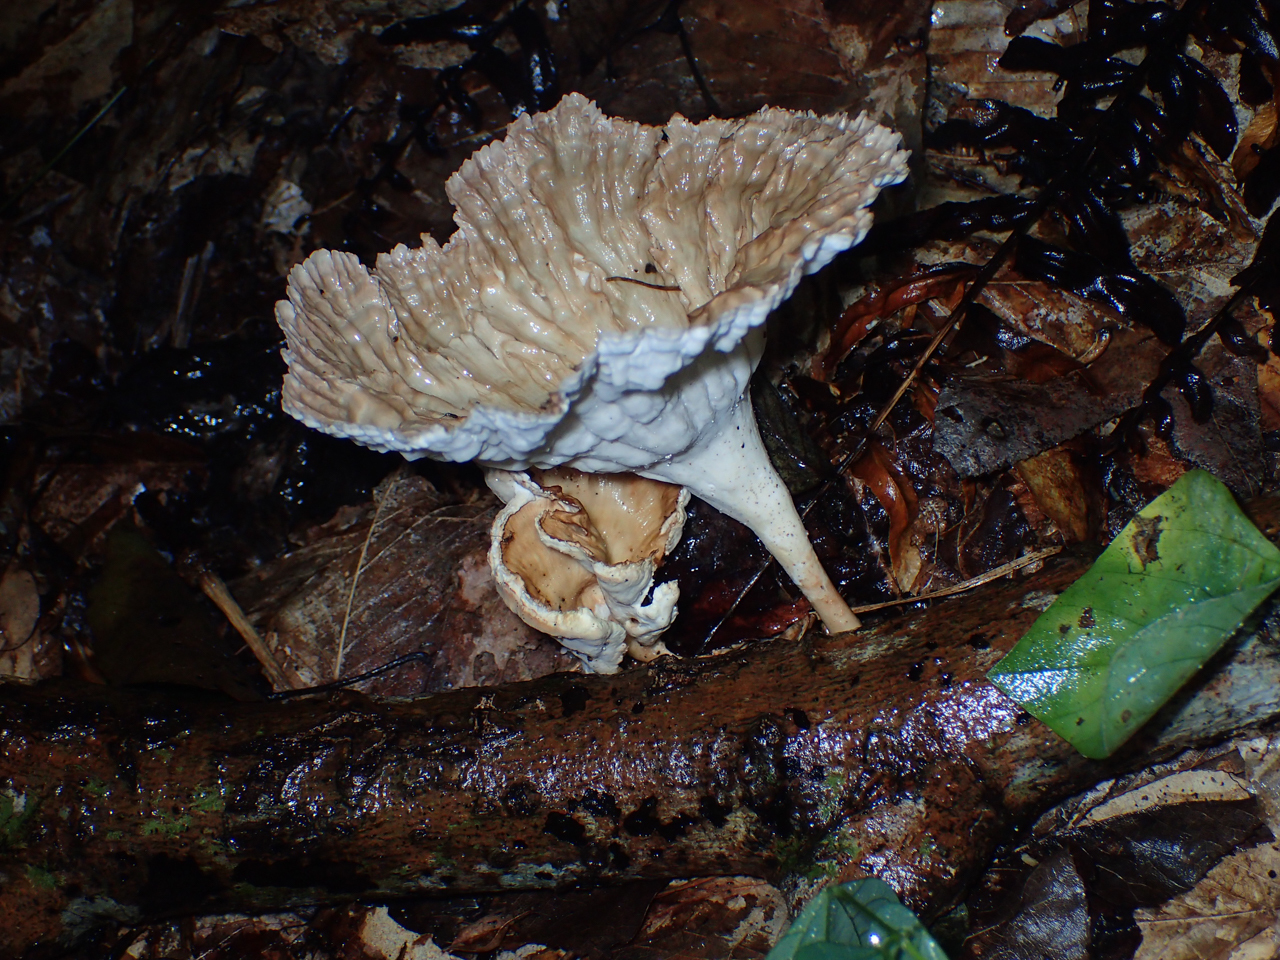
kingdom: Fungi
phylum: Basidiomycota
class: Agaricomycetes
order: Polyporales
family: Panaceae
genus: Cymatoderma
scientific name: Cymatoderma caperatum
